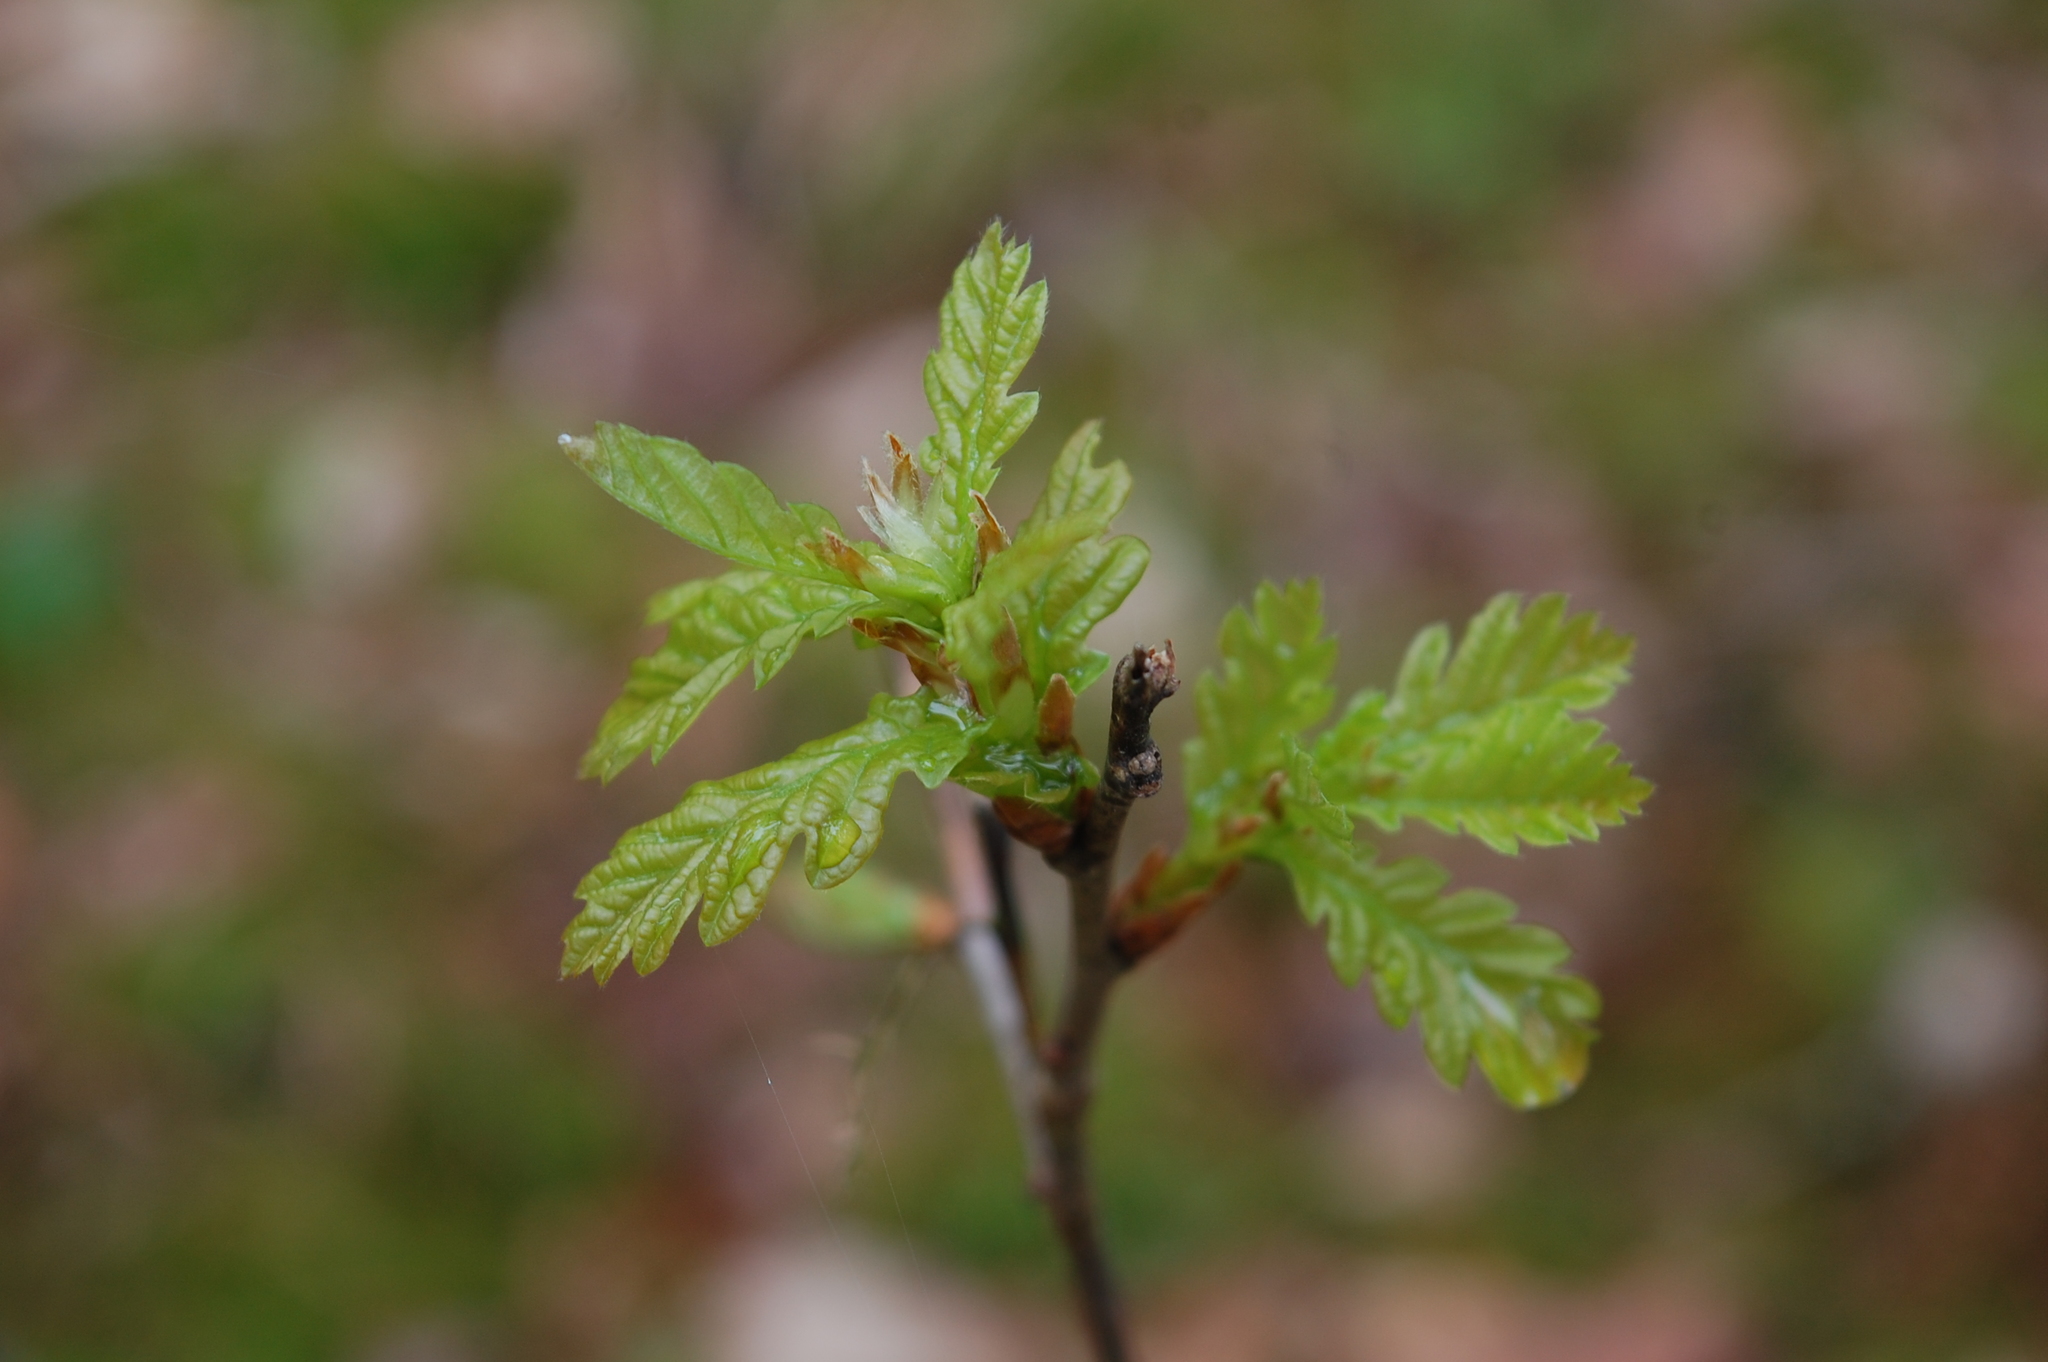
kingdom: Plantae
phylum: Tracheophyta
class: Magnoliopsida
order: Fagales
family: Fagaceae
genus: Quercus
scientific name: Quercus robur
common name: Pedunculate oak
